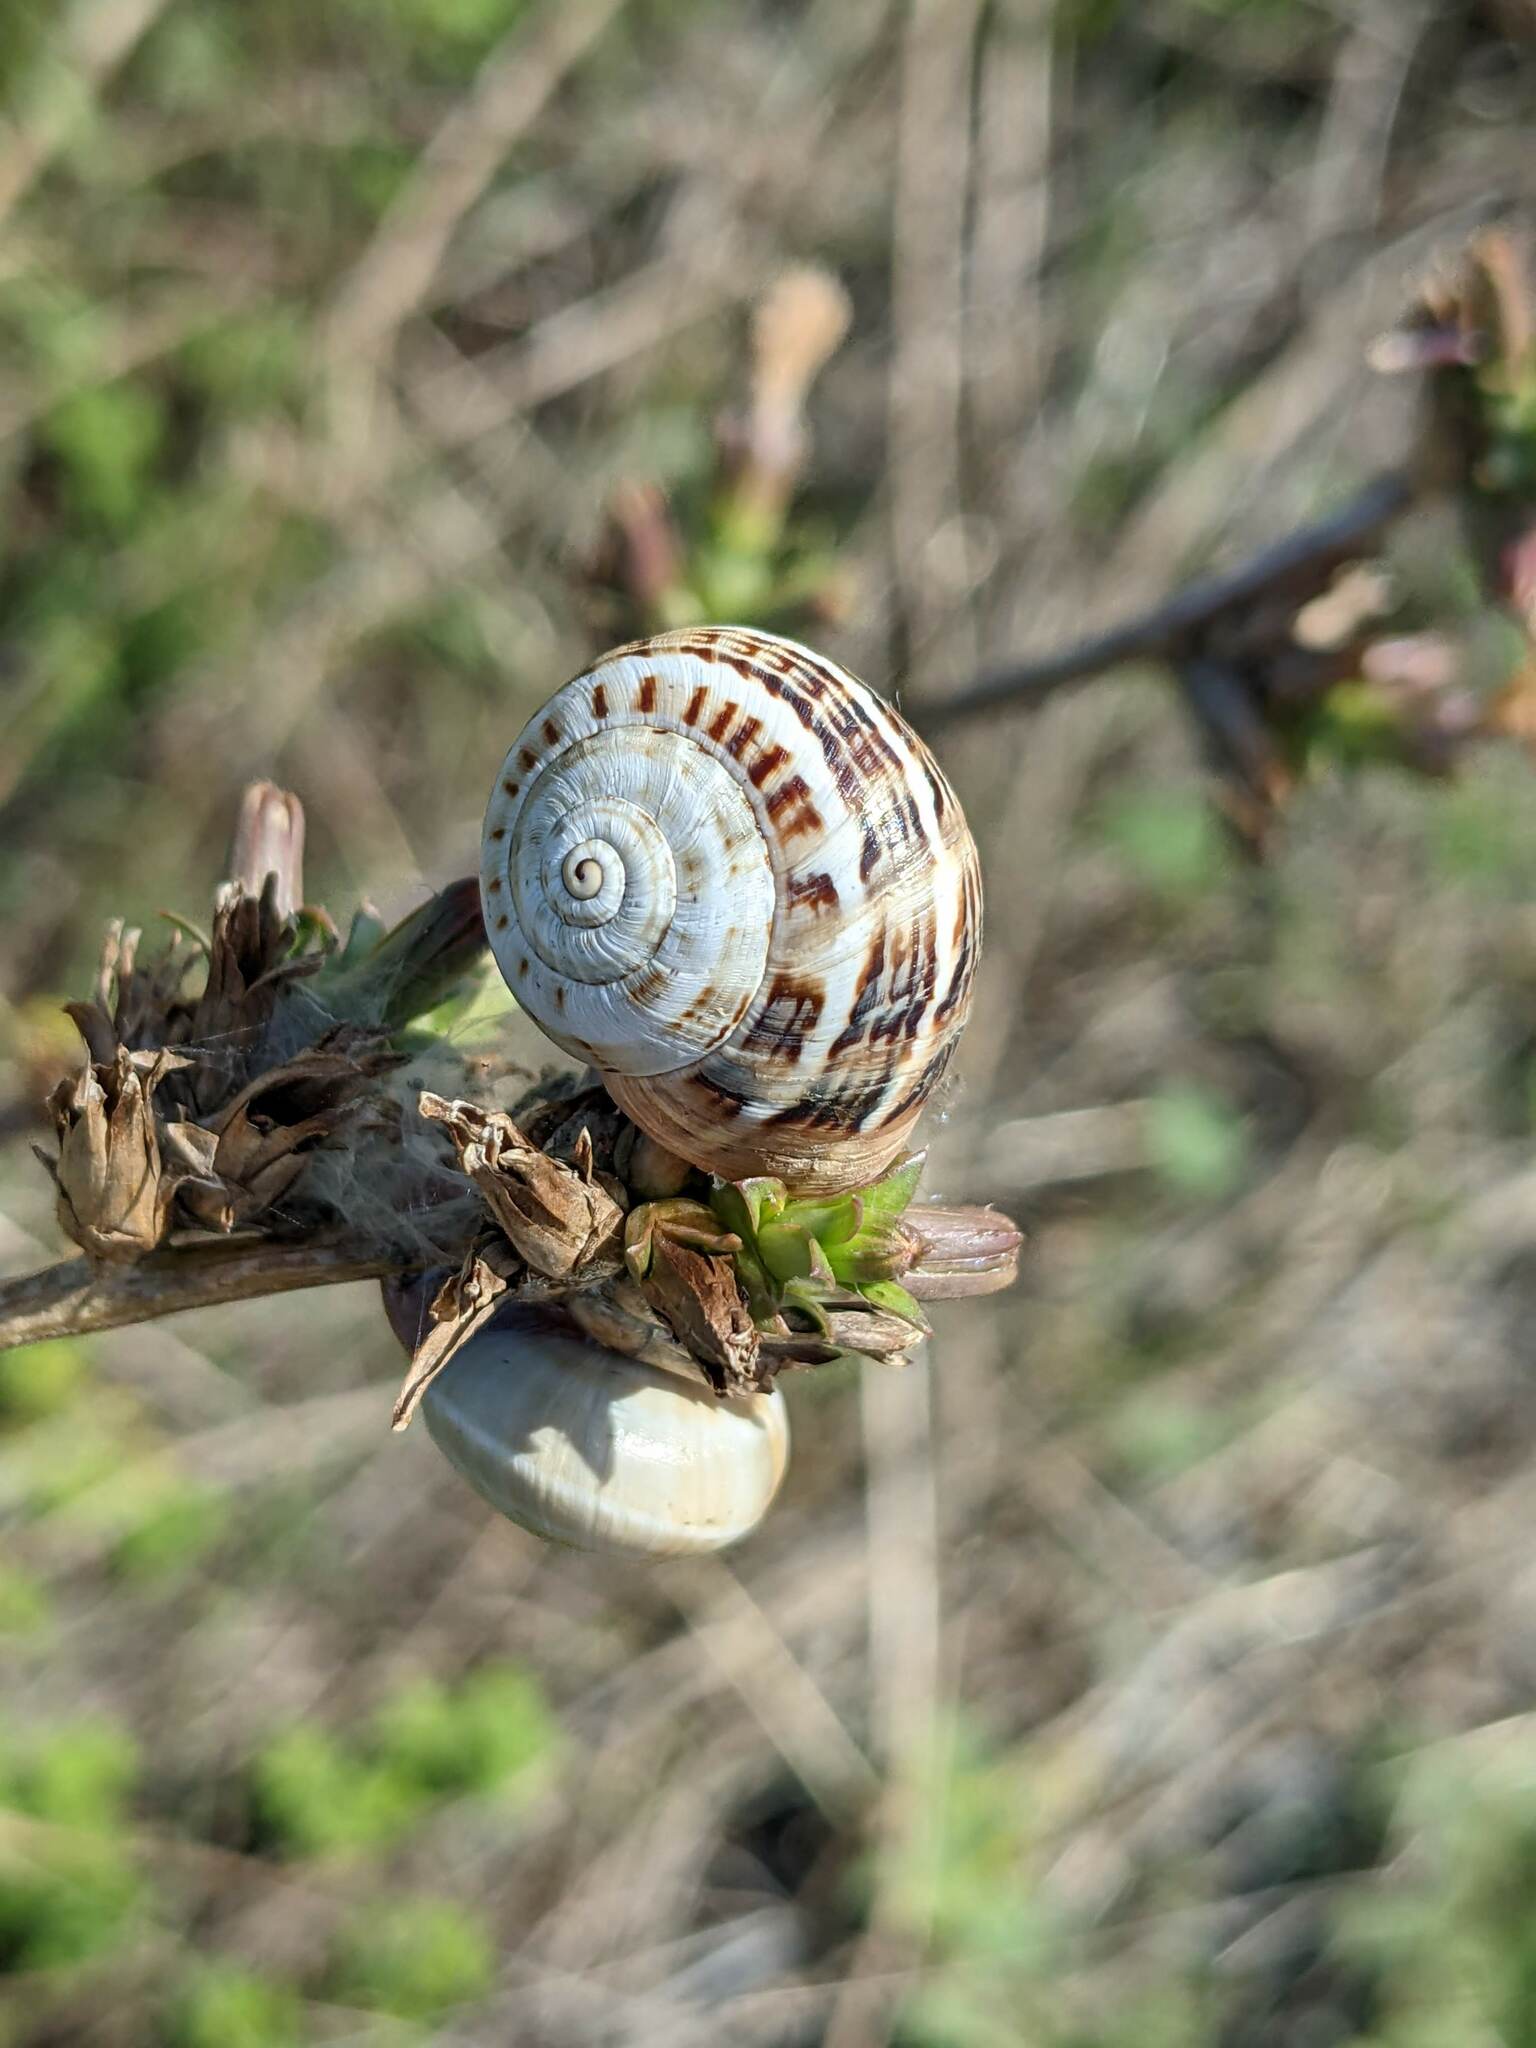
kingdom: Animalia
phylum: Mollusca
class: Gastropoda
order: Stylommatophora
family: Helicidae
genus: Theba
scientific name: Theba pisana
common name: White snail
